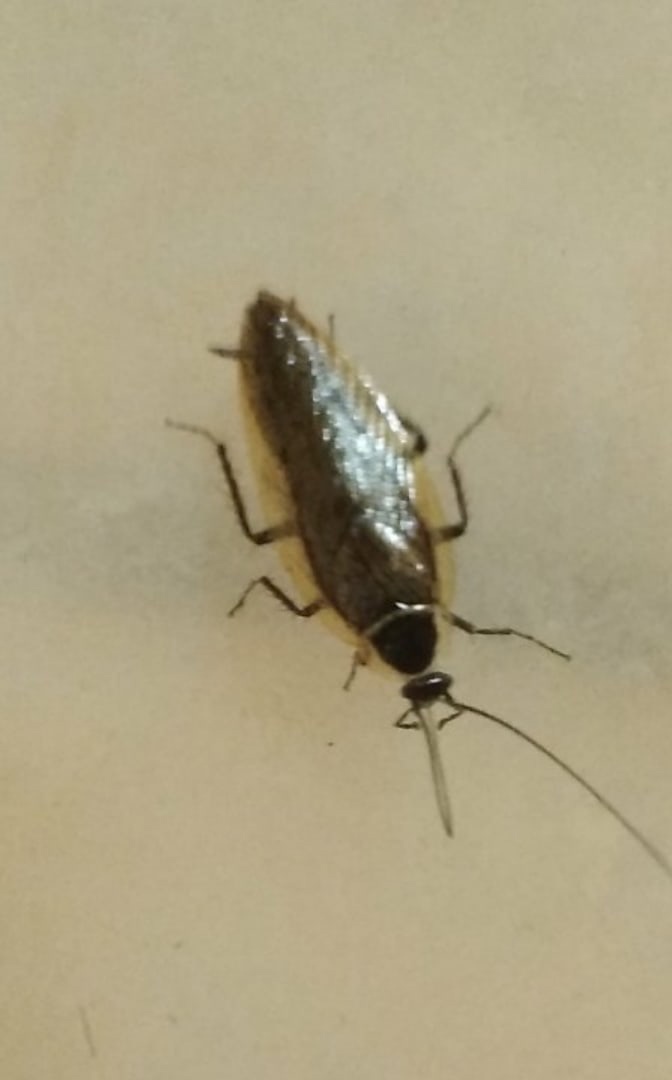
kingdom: Animalia
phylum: Arthropoda
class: Insecta
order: Blattodea
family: Ectobiidae
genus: Ectobius
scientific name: Ectobius sylvestris
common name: Forest cockroach
